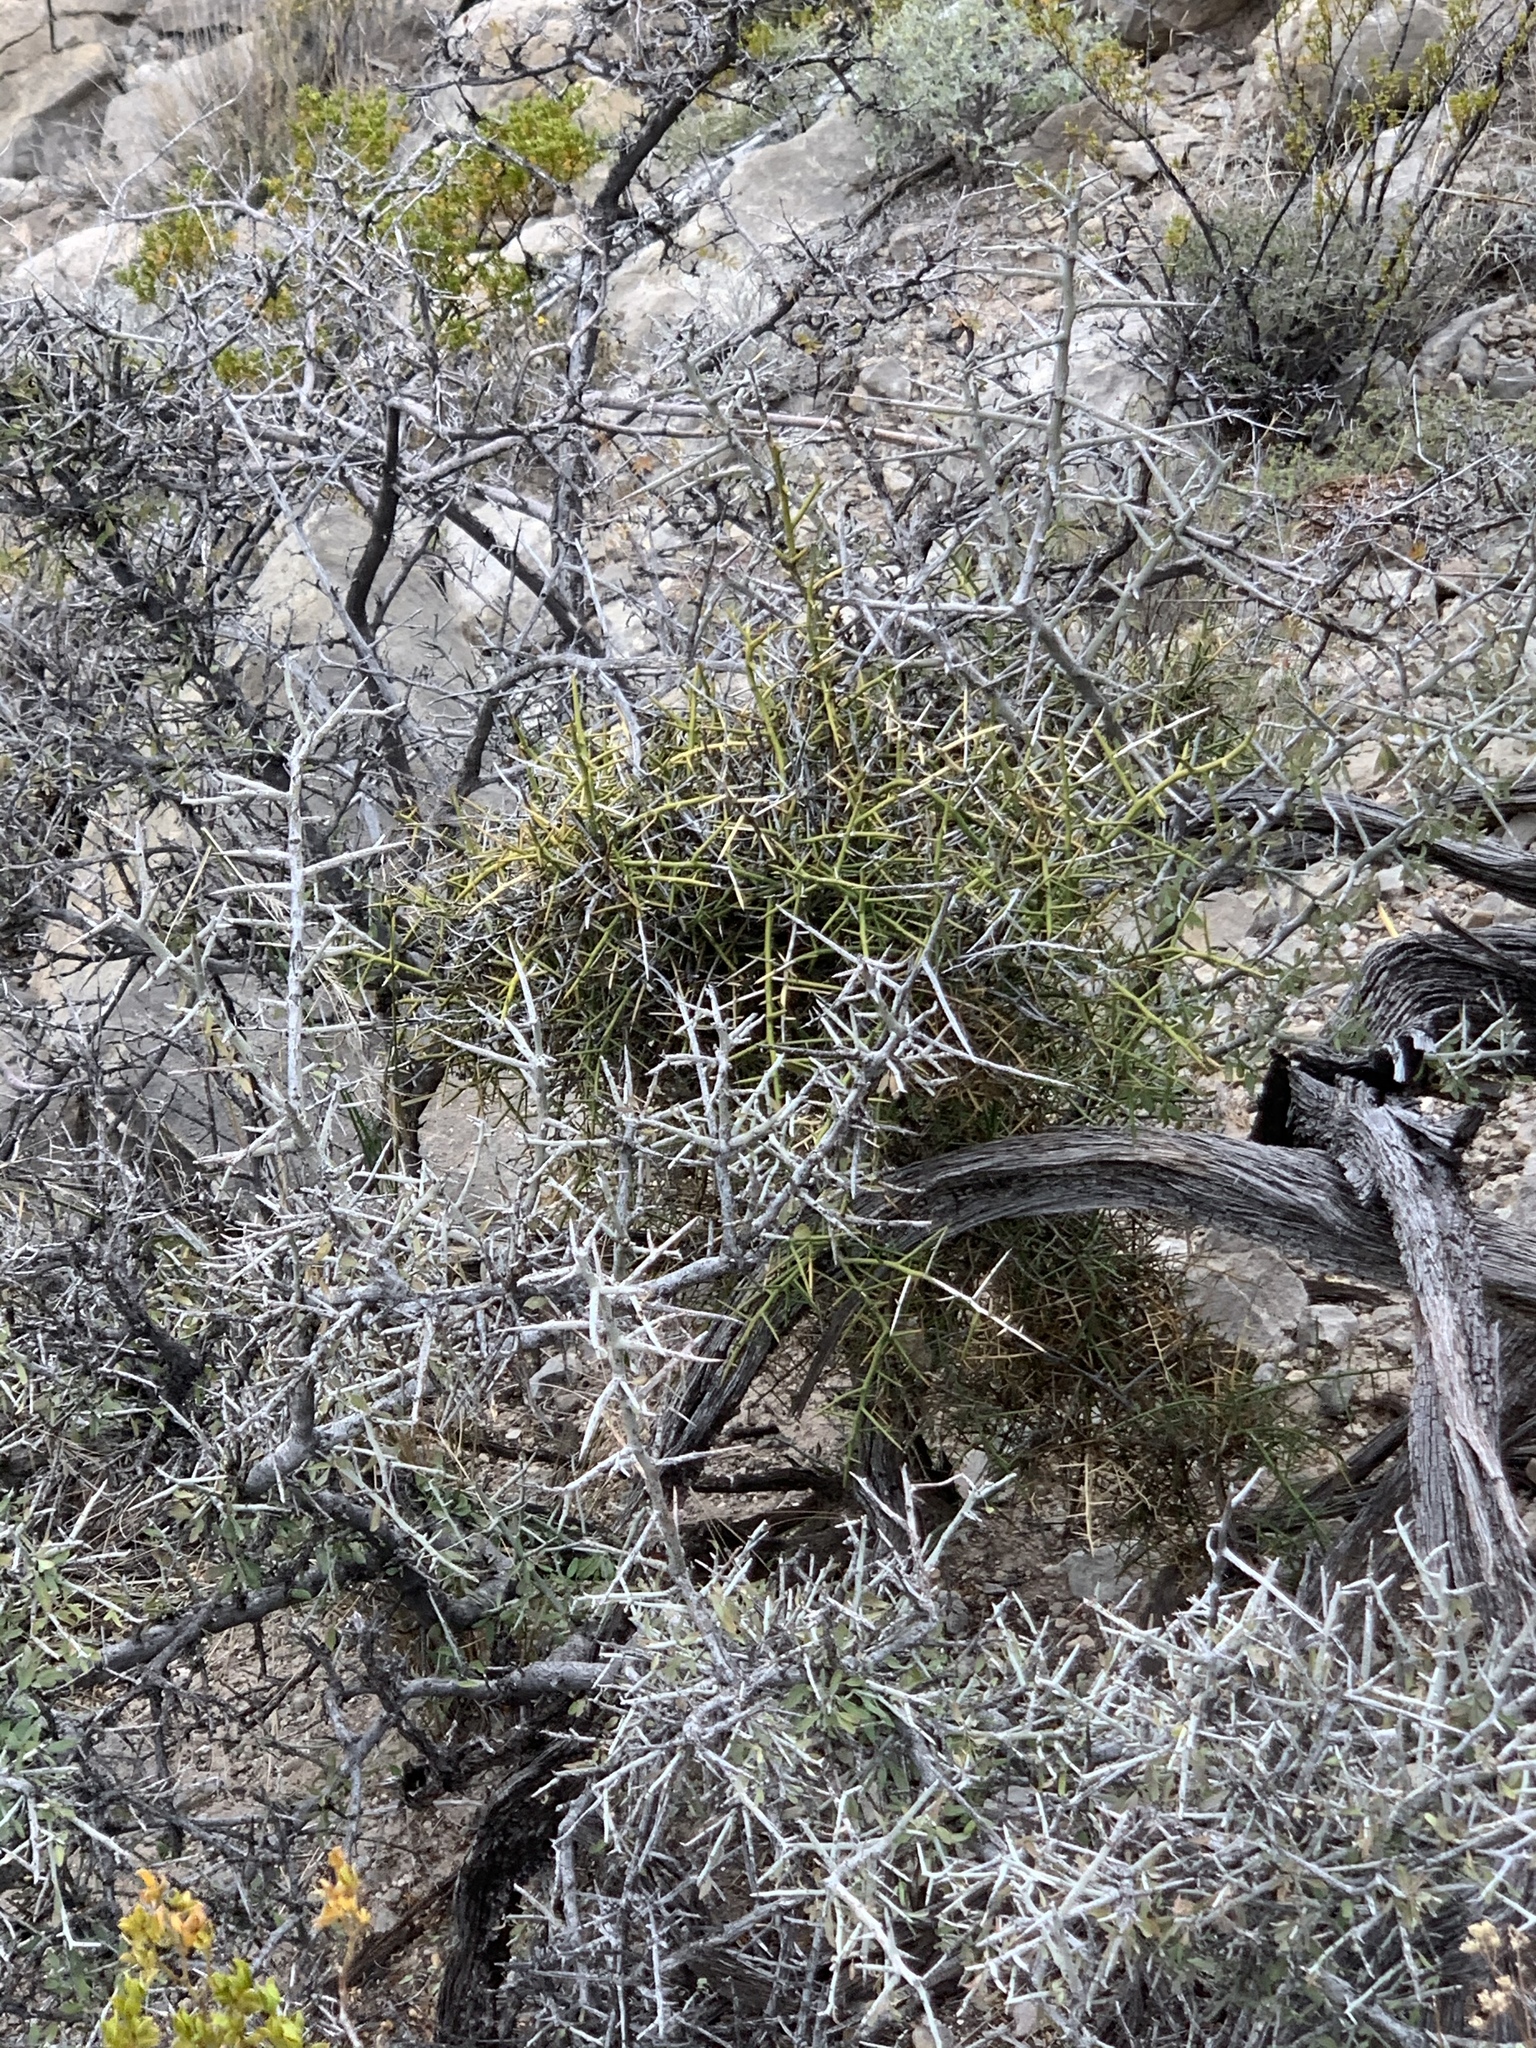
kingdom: Plantae
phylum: Tracheophyta
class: Magnoliopsida
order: Brassicales
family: Koeberliniaceae
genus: Koeberlinia
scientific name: Koeberlinia spinosa
